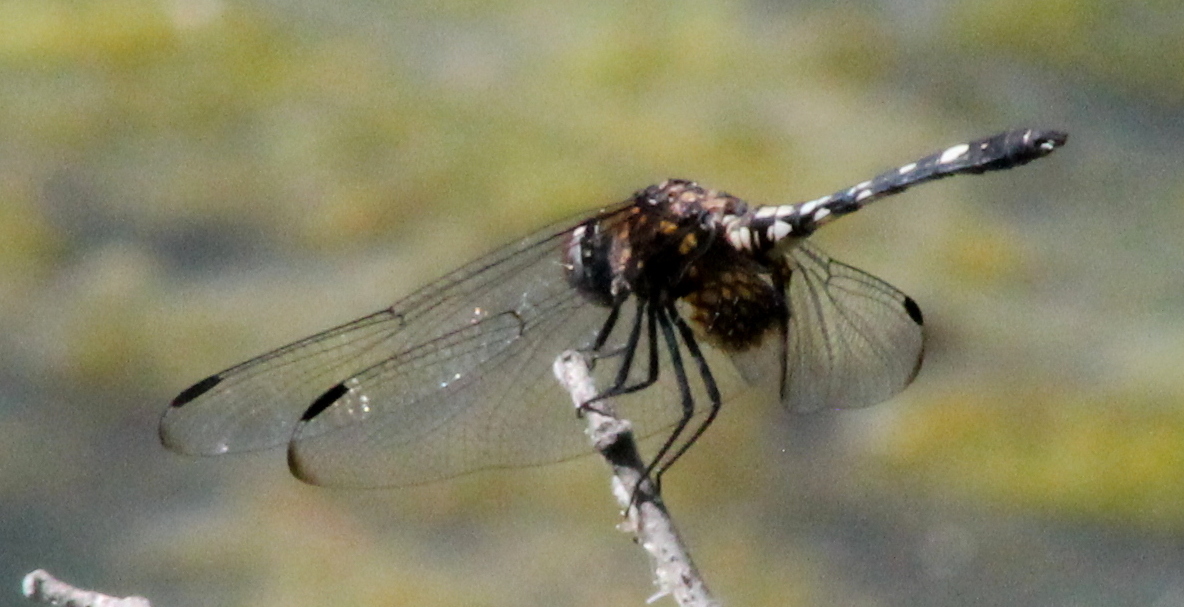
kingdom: Animalia
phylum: Arthropoda
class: Insecta
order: Odonata
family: Libellulidae
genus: Dythemis
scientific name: Dythemis fugax
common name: Checkered setwing
